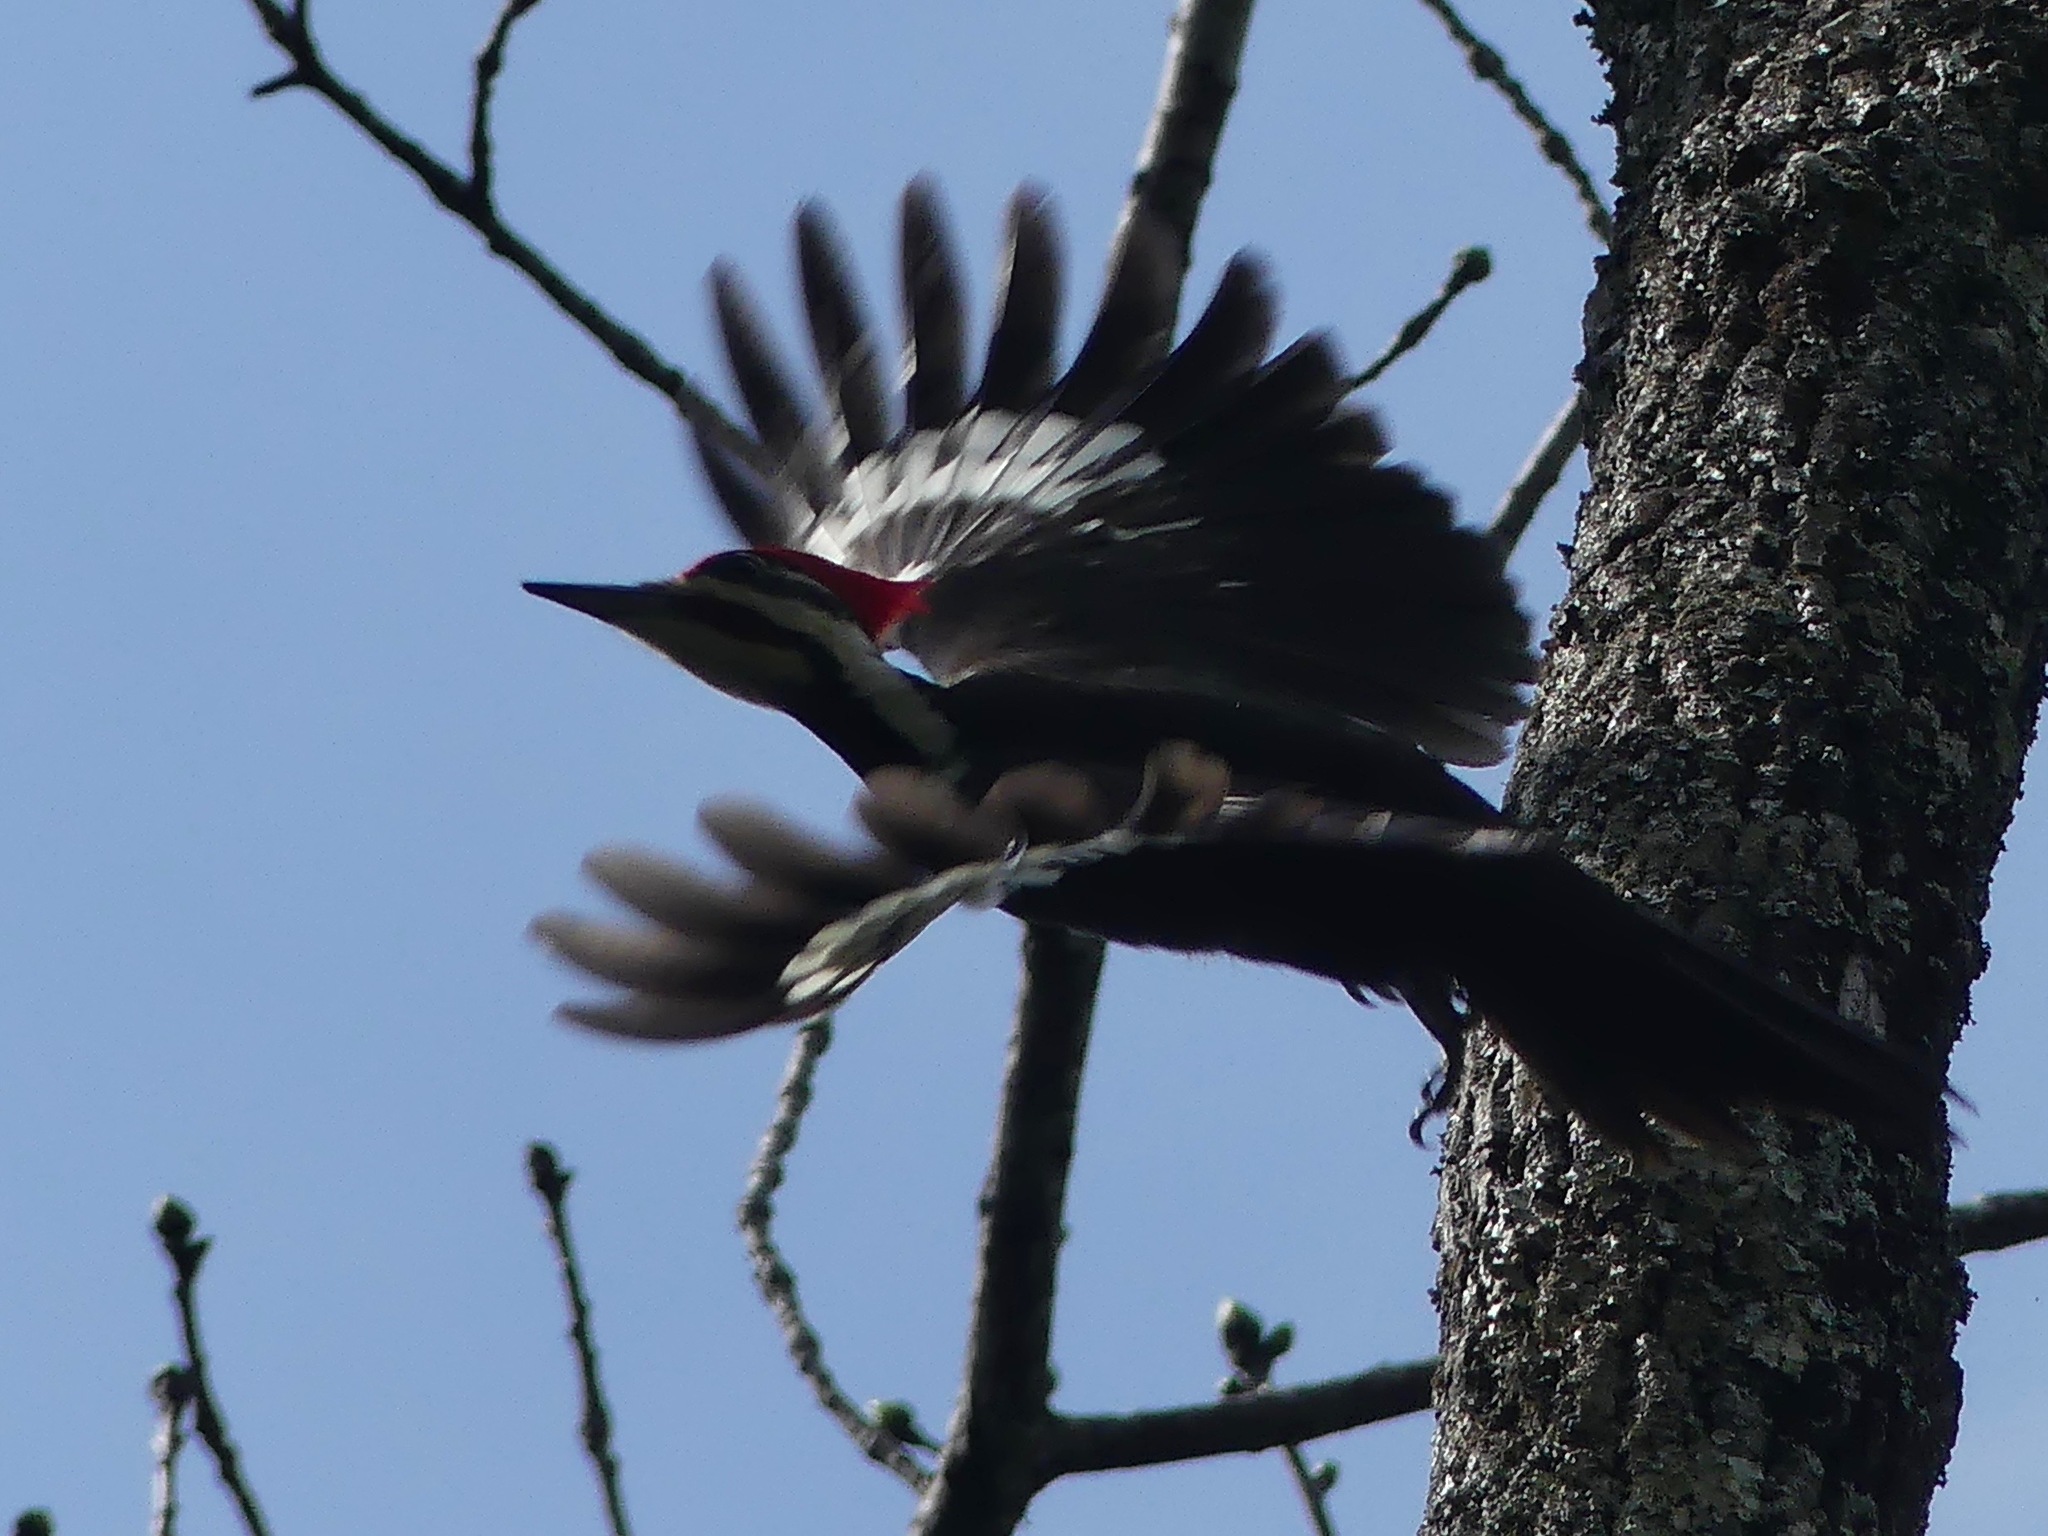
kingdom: Animalia
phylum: Chordata
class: Aves
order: Piciformes
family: Picidae
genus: Dryocopus
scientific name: Dryocopus pileatus
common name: Pileated woodpecker
